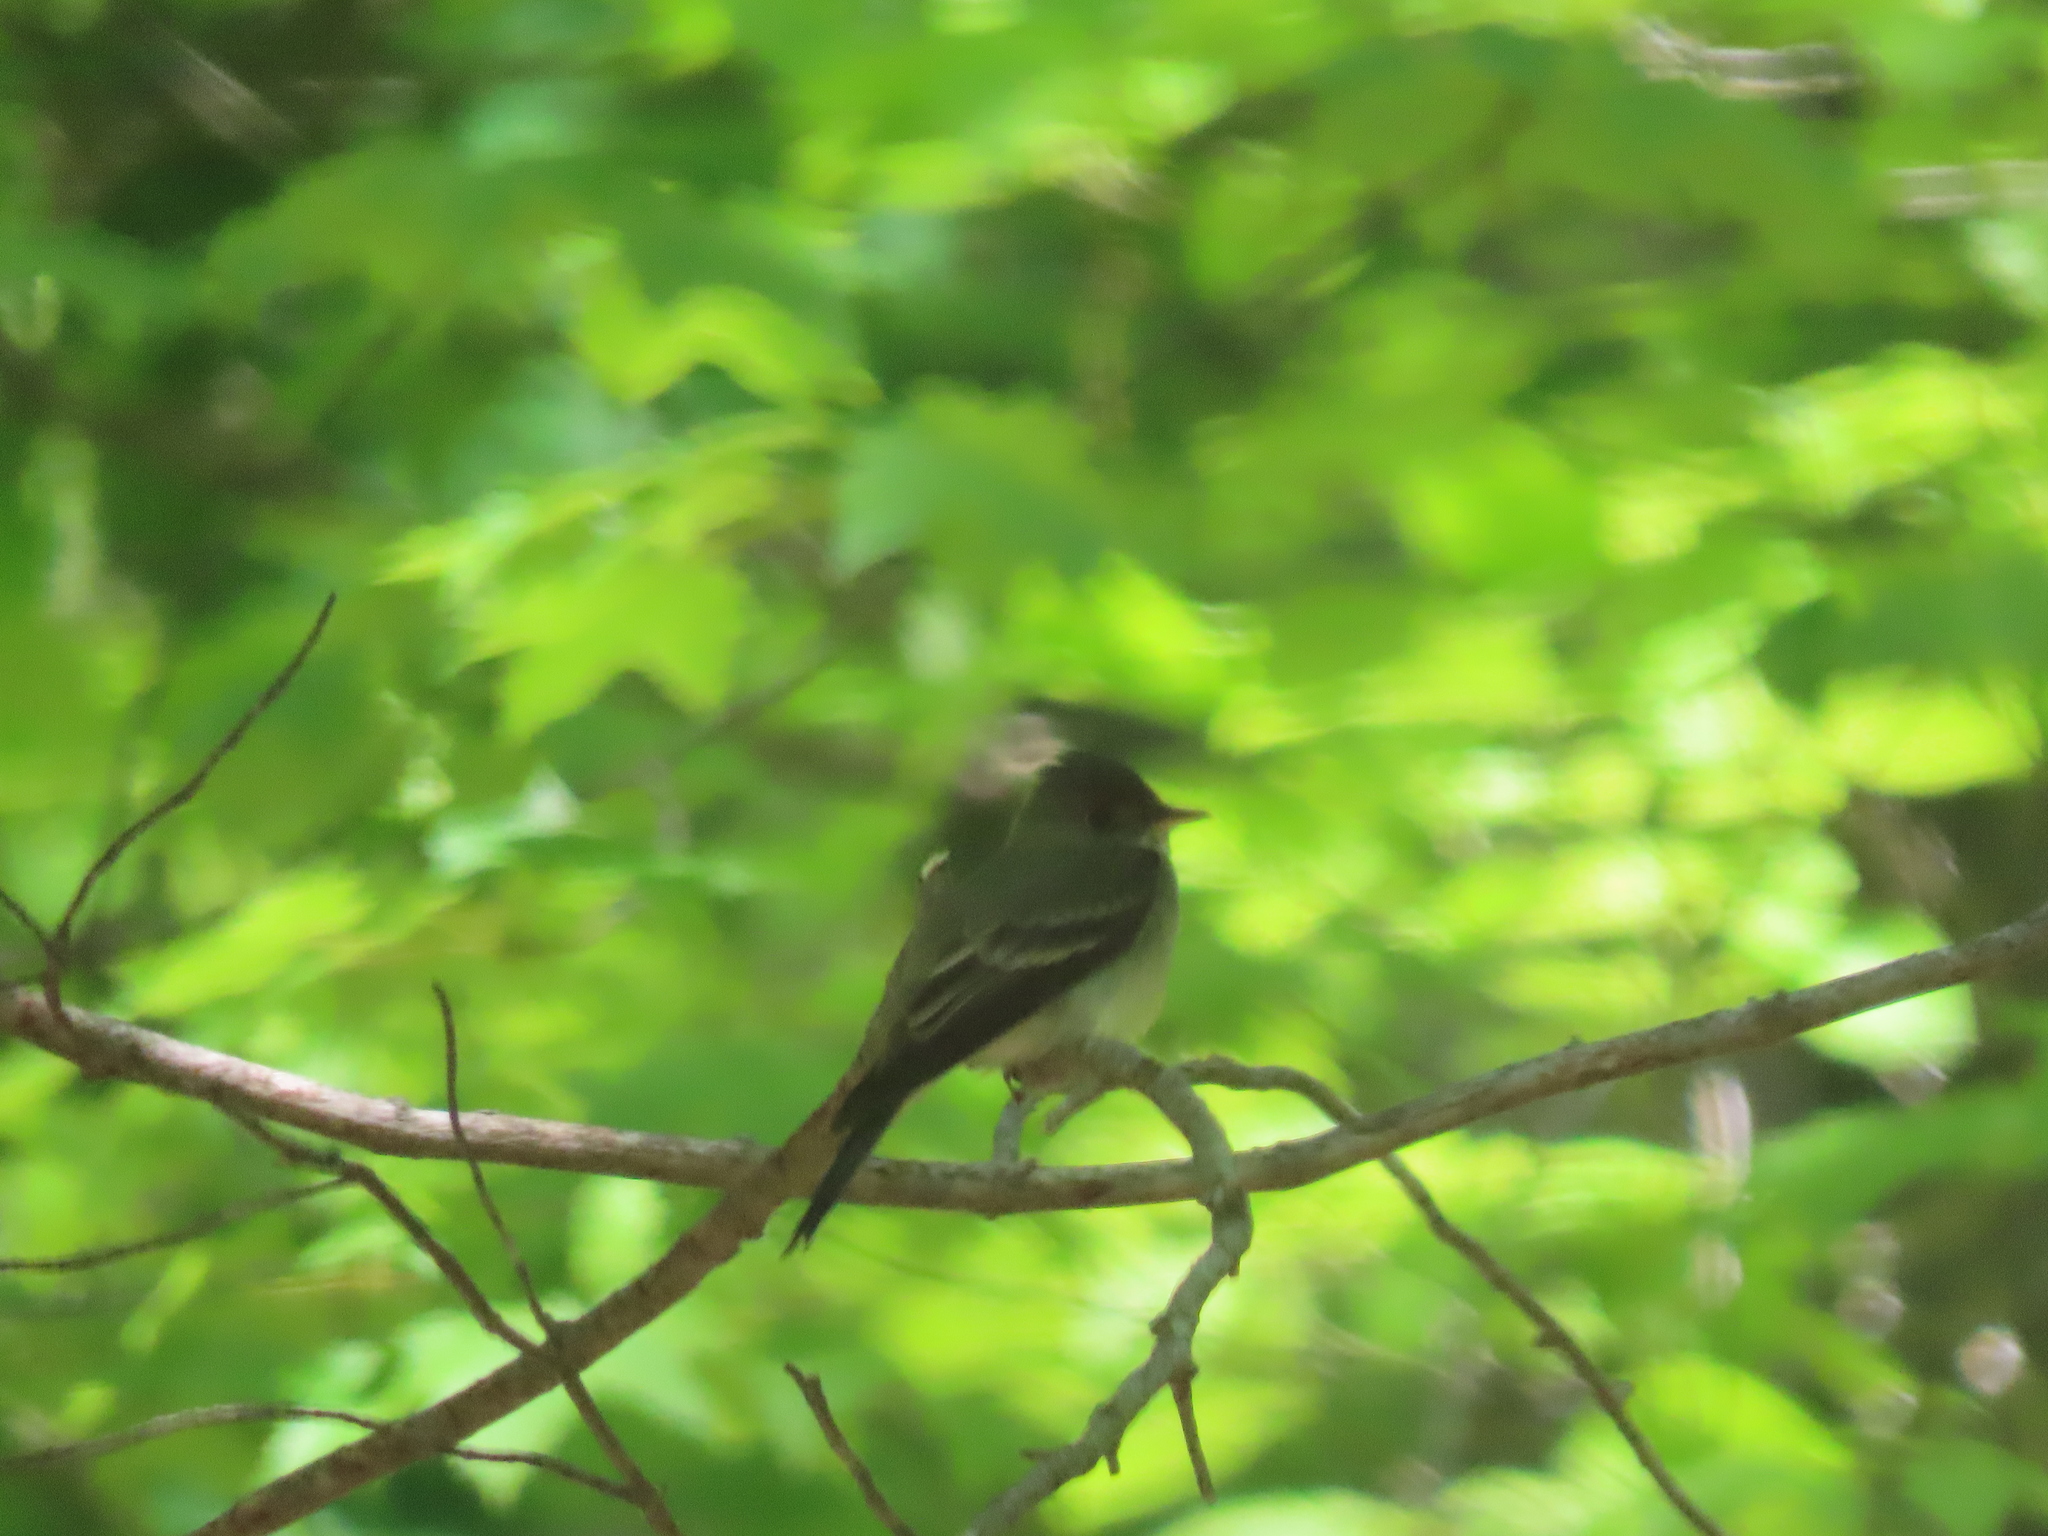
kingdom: Animalia
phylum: Chordata
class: Aves
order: Passeriformes
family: Tyrannidae
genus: Contopus
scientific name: Contopus virens
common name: Eastern wood-pewee
